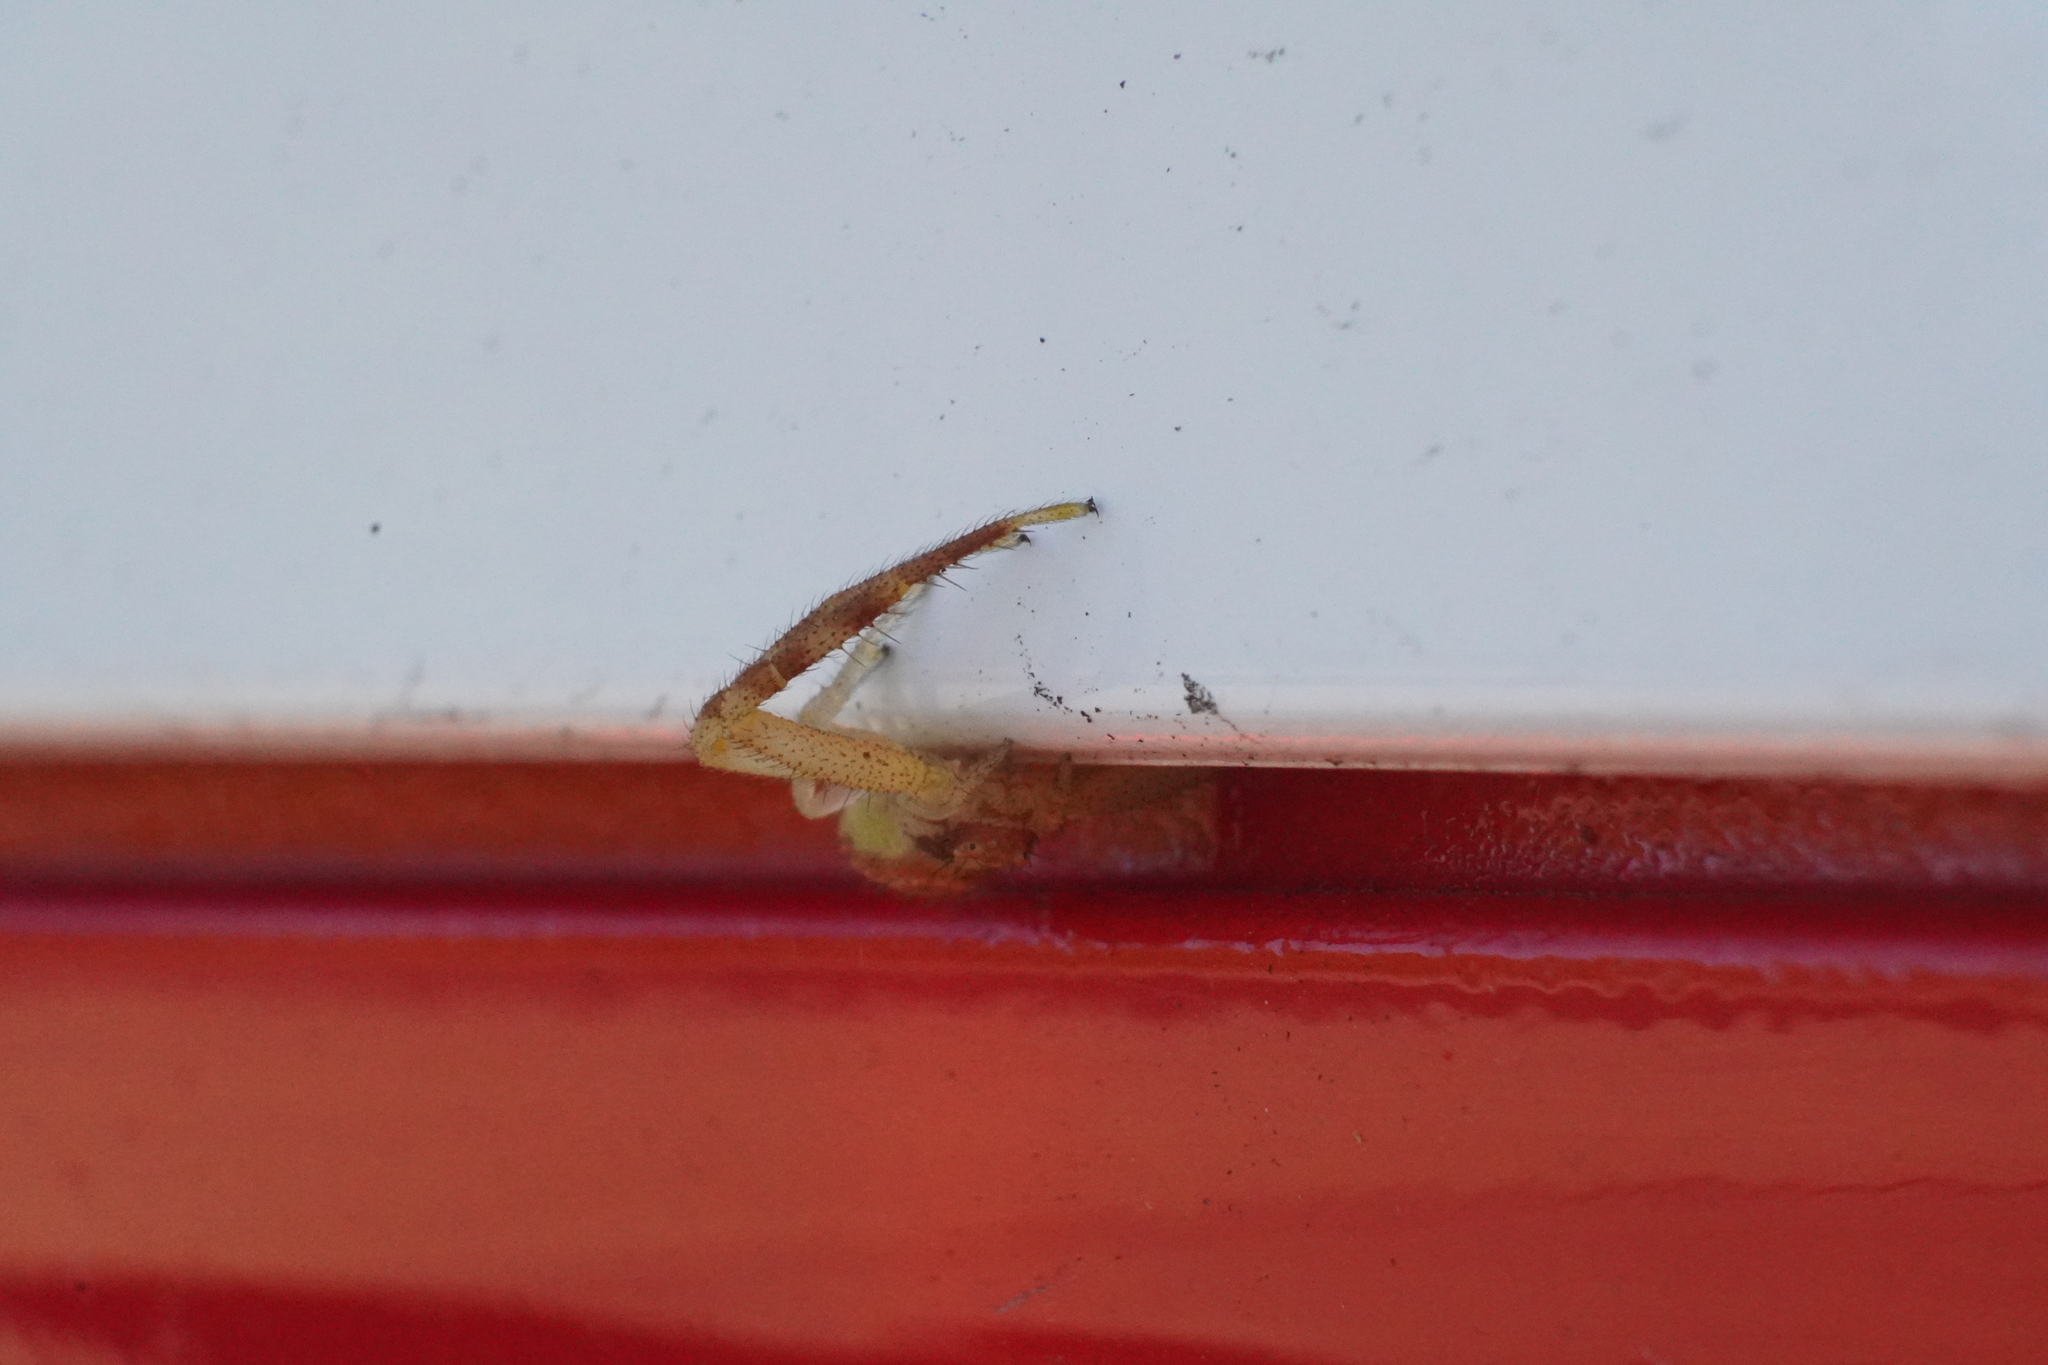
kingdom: Animalia
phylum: Arthropoda
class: Arachnida
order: Araneae
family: Thomisidae
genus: Mecaphesa
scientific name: Mecaphesa asperata
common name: Crab spiders
